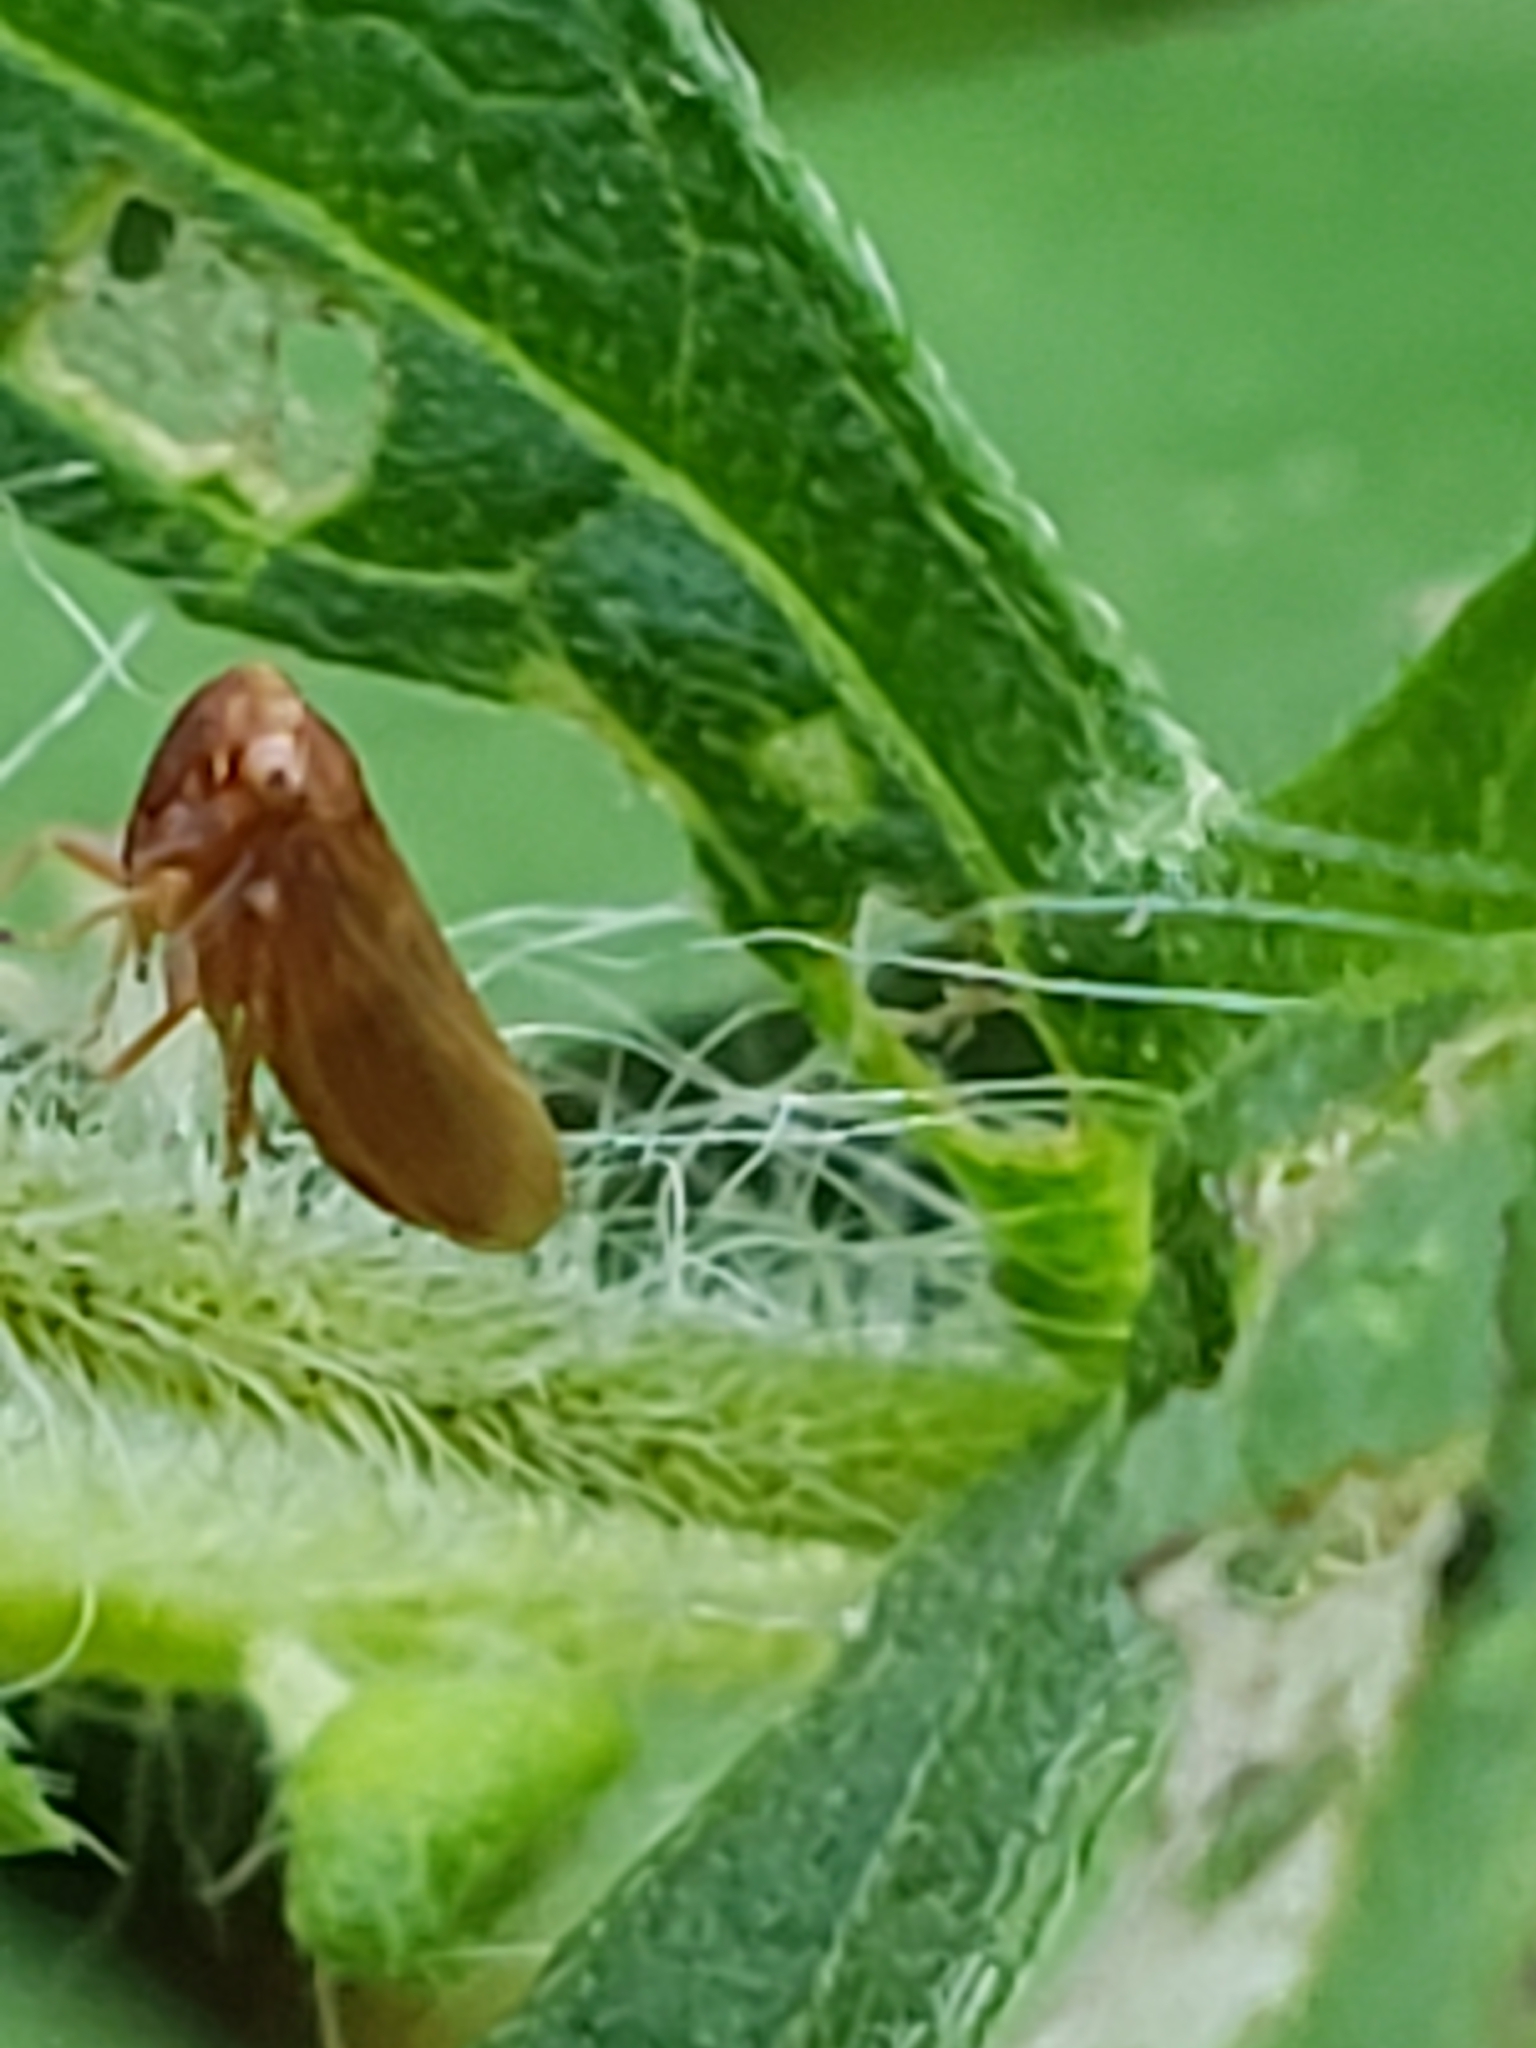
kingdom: Animalia
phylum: Arthropoda
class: Insecta
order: Hemiptera
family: Cicadellidae
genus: Agallia
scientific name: Agallia deleta
